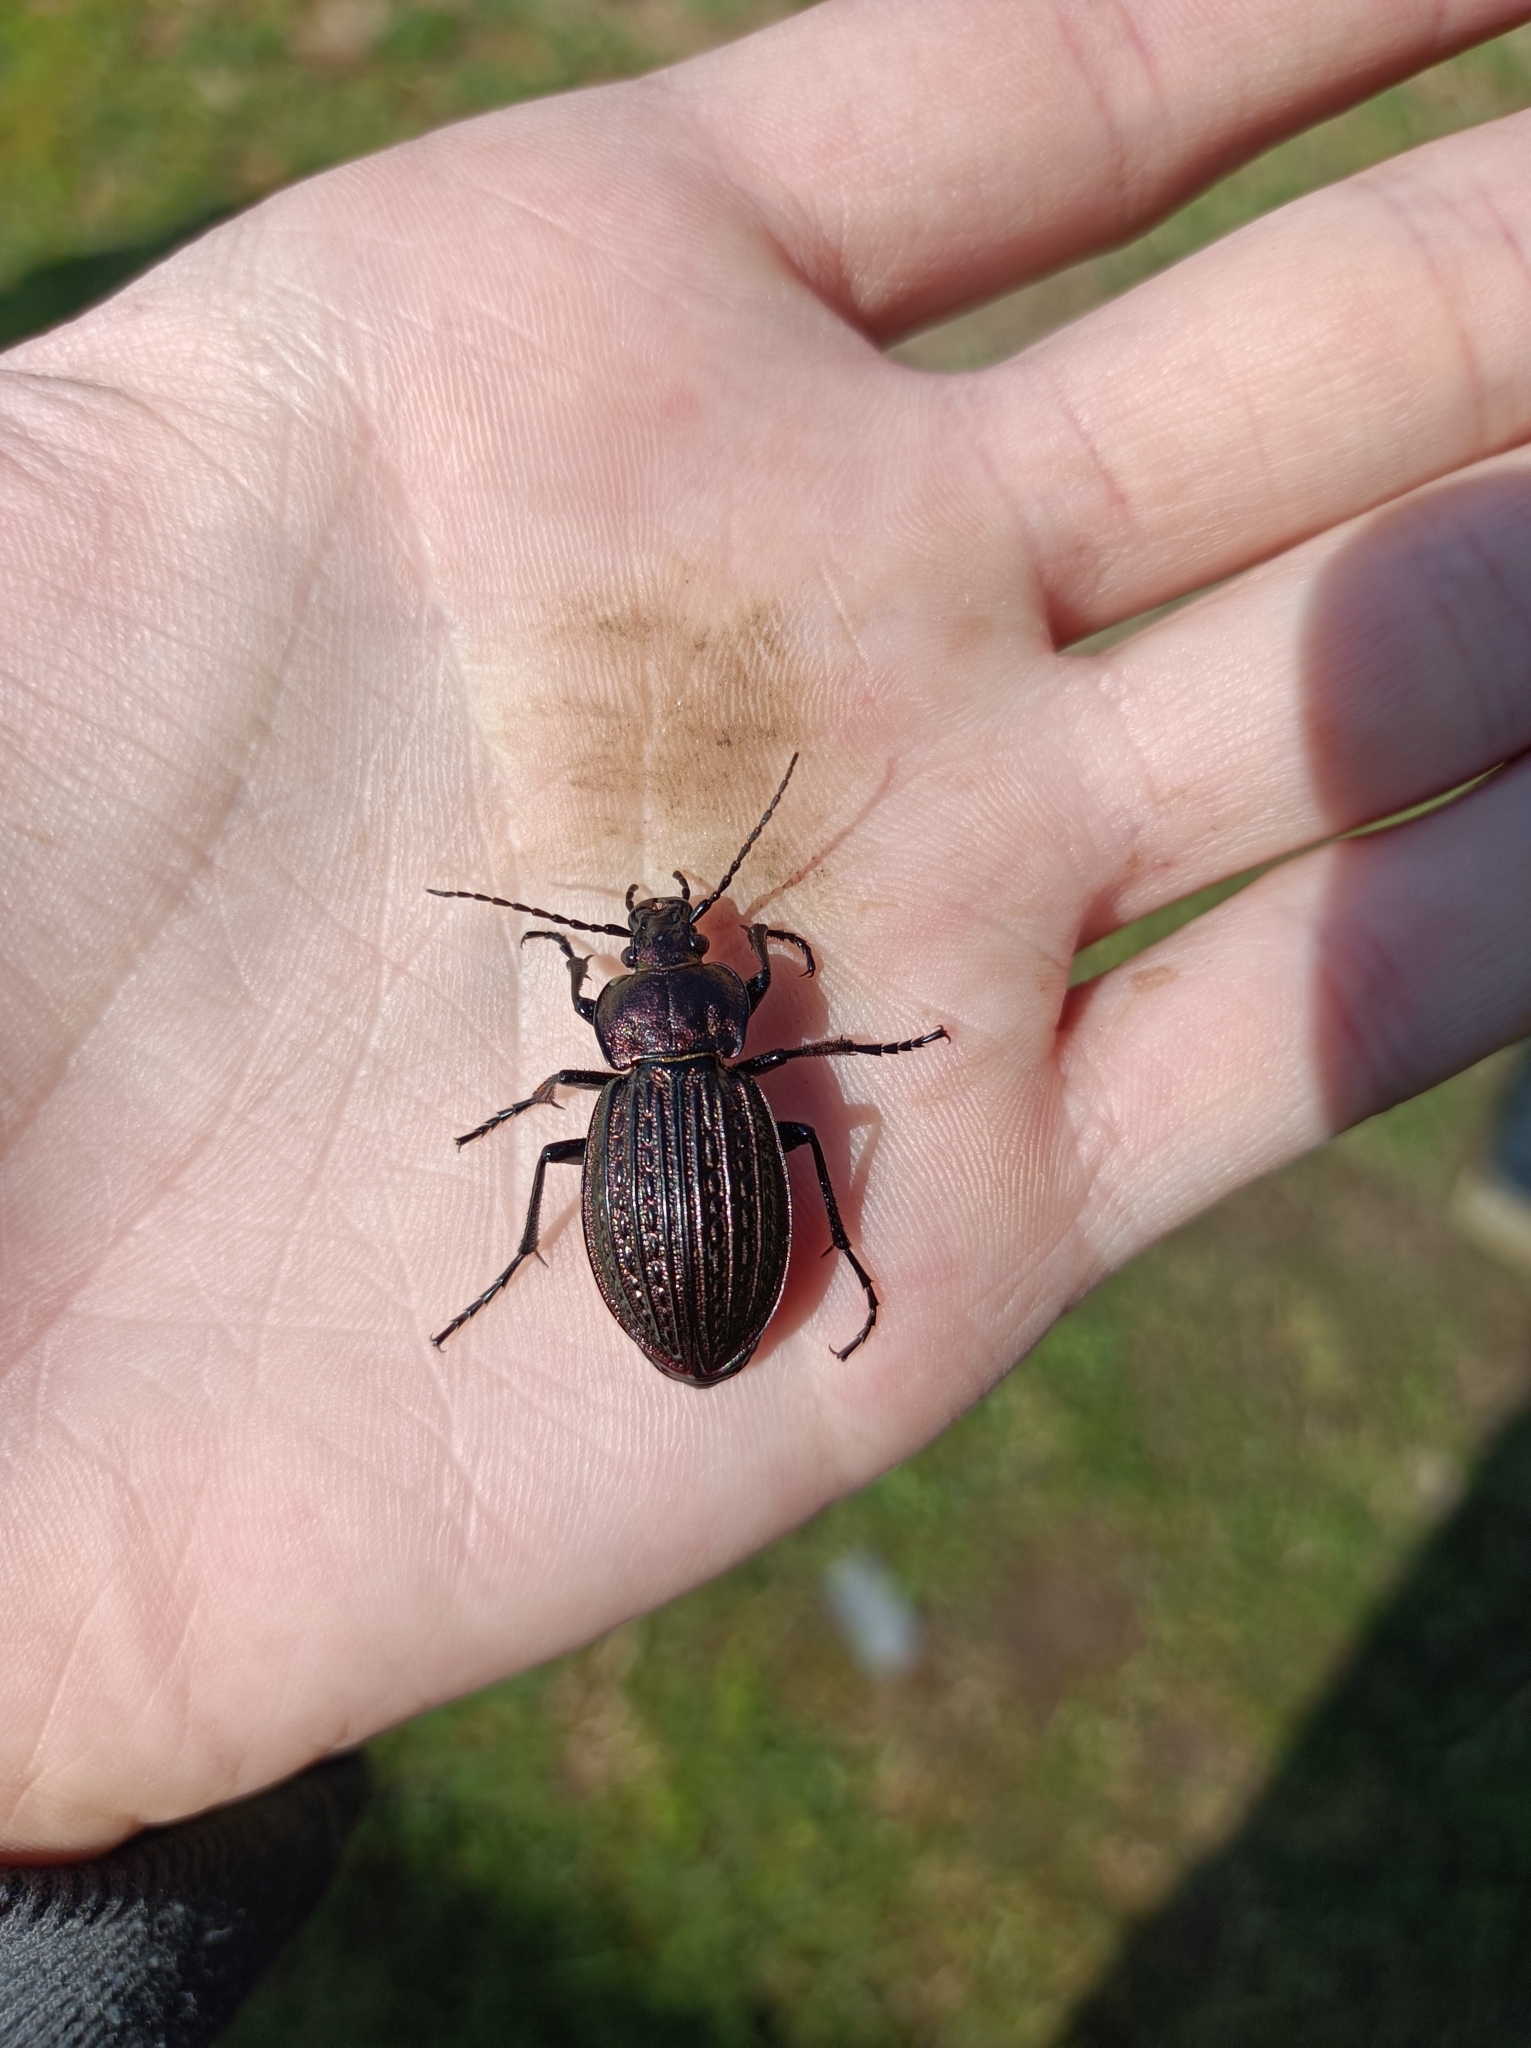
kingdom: Animalia
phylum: Arthropoda
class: Insecta
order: Coleoptera
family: Carabidae
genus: Carabus
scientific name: Carabus cancellatus
